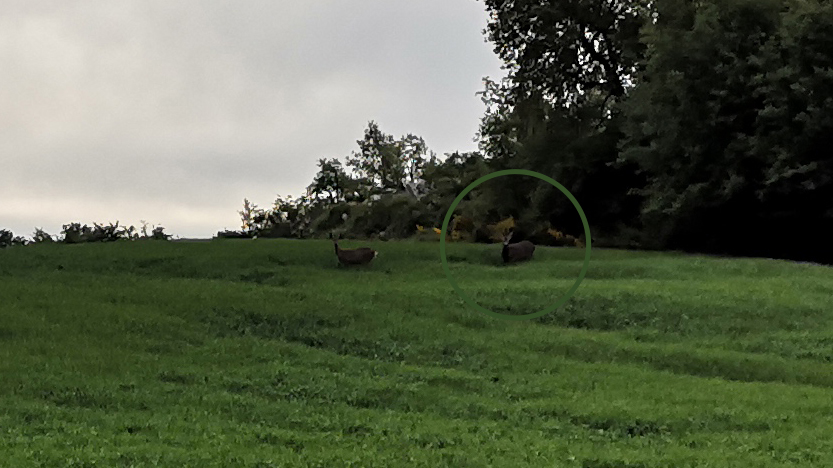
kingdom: Animalia
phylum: Chordata
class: Mammalia
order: Artiodactyla
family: Cervidae
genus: Capreolus
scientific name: Capreolus capreolus
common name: Western roe deer
